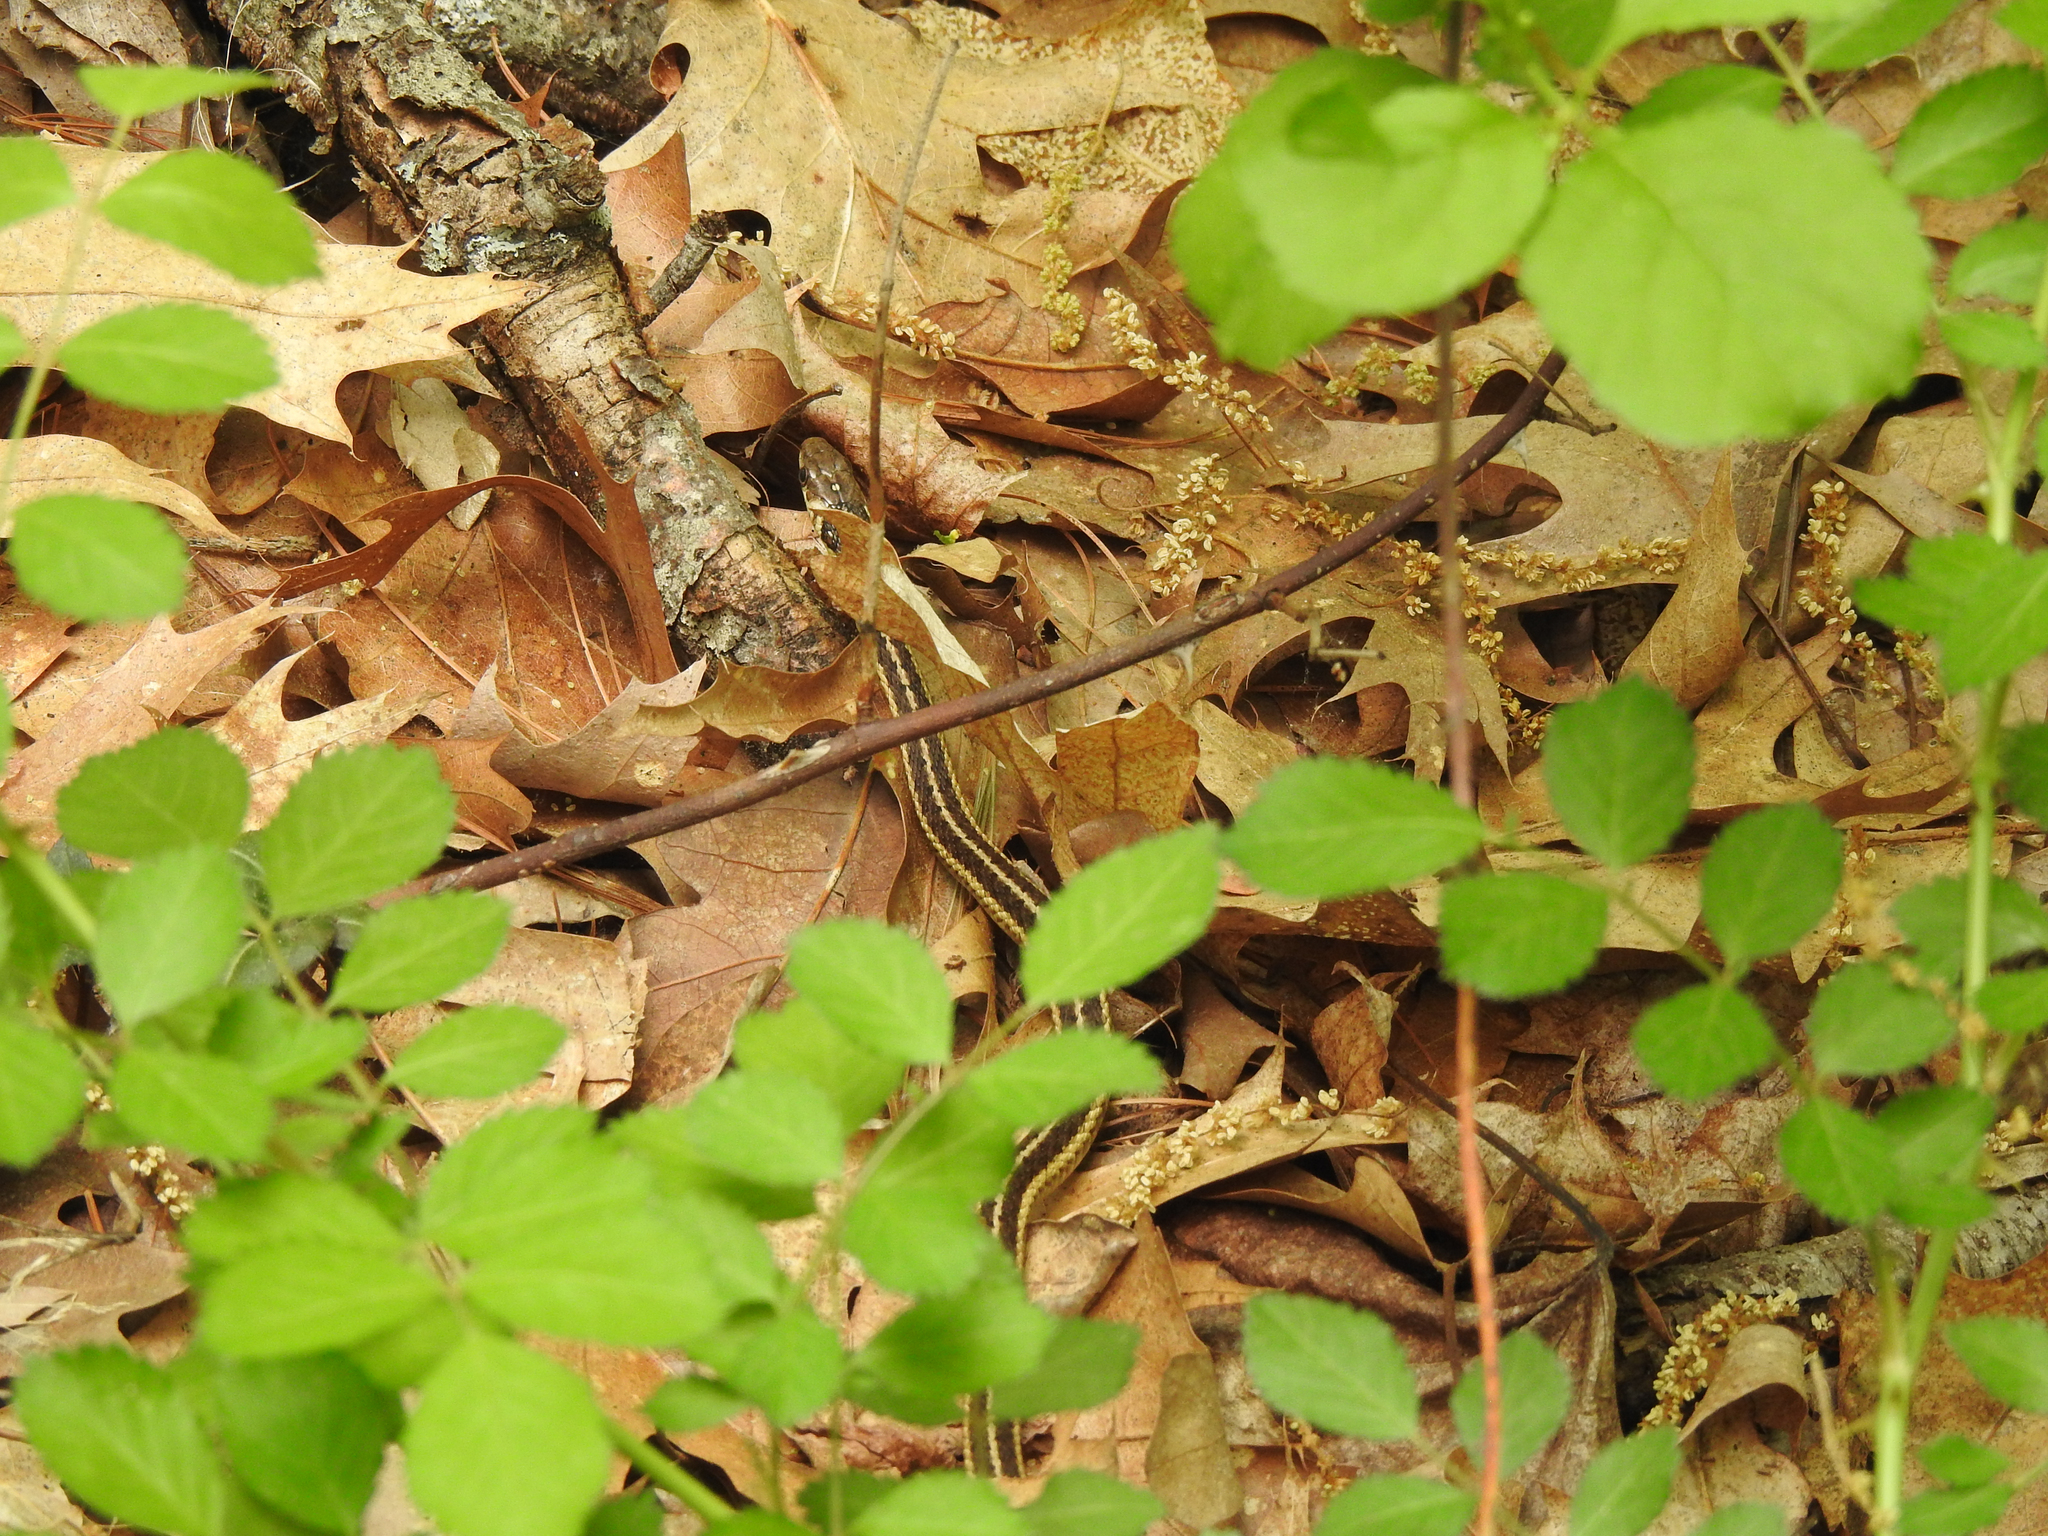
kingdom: Animalia
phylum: Chordata
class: Squamata
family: Colubridae
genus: Thamnophis
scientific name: Thamnophis sirtalis
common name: Common garter snake
